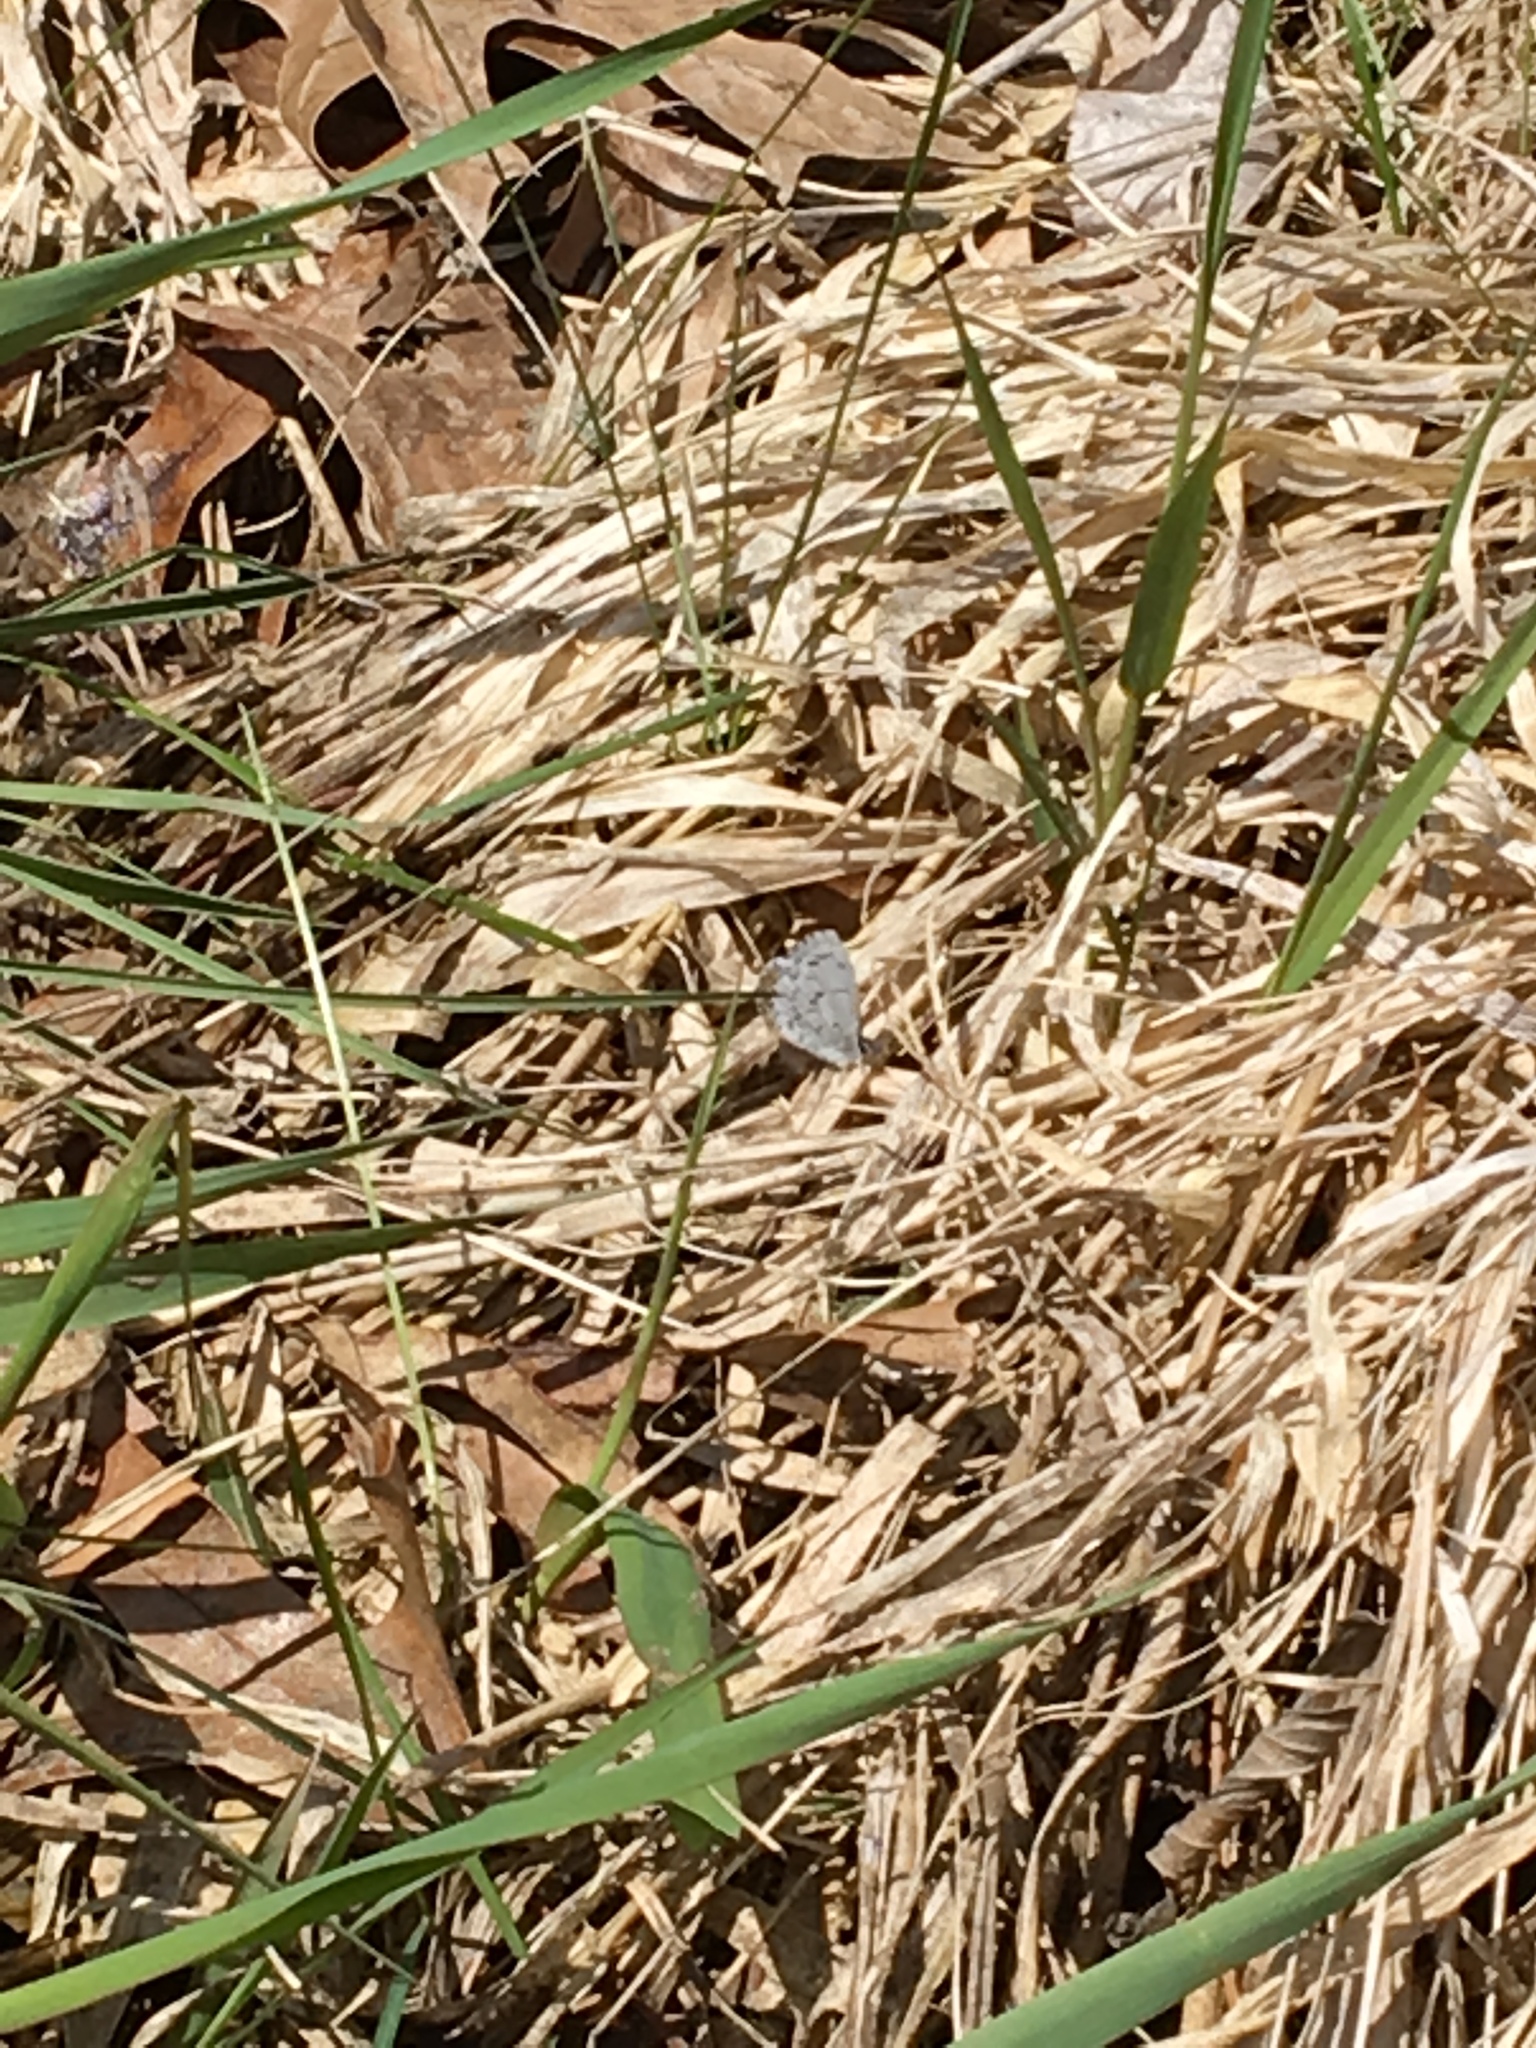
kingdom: Animalia
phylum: Arthropoda
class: Insecta
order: Lepidoptera
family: Lycaenidae
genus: Celastrina
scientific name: Celastrina ladon
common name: Spring azure
